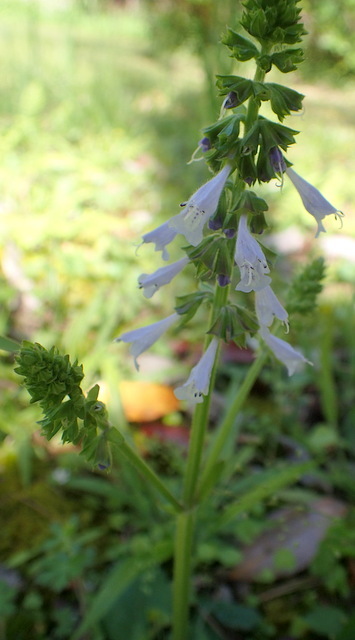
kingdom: Plantae
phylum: Tracheophyta
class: Magnoliopsida
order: Lamiales
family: Lamiaceae
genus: Salvia
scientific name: Salvia lyrata
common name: Cancerweed
